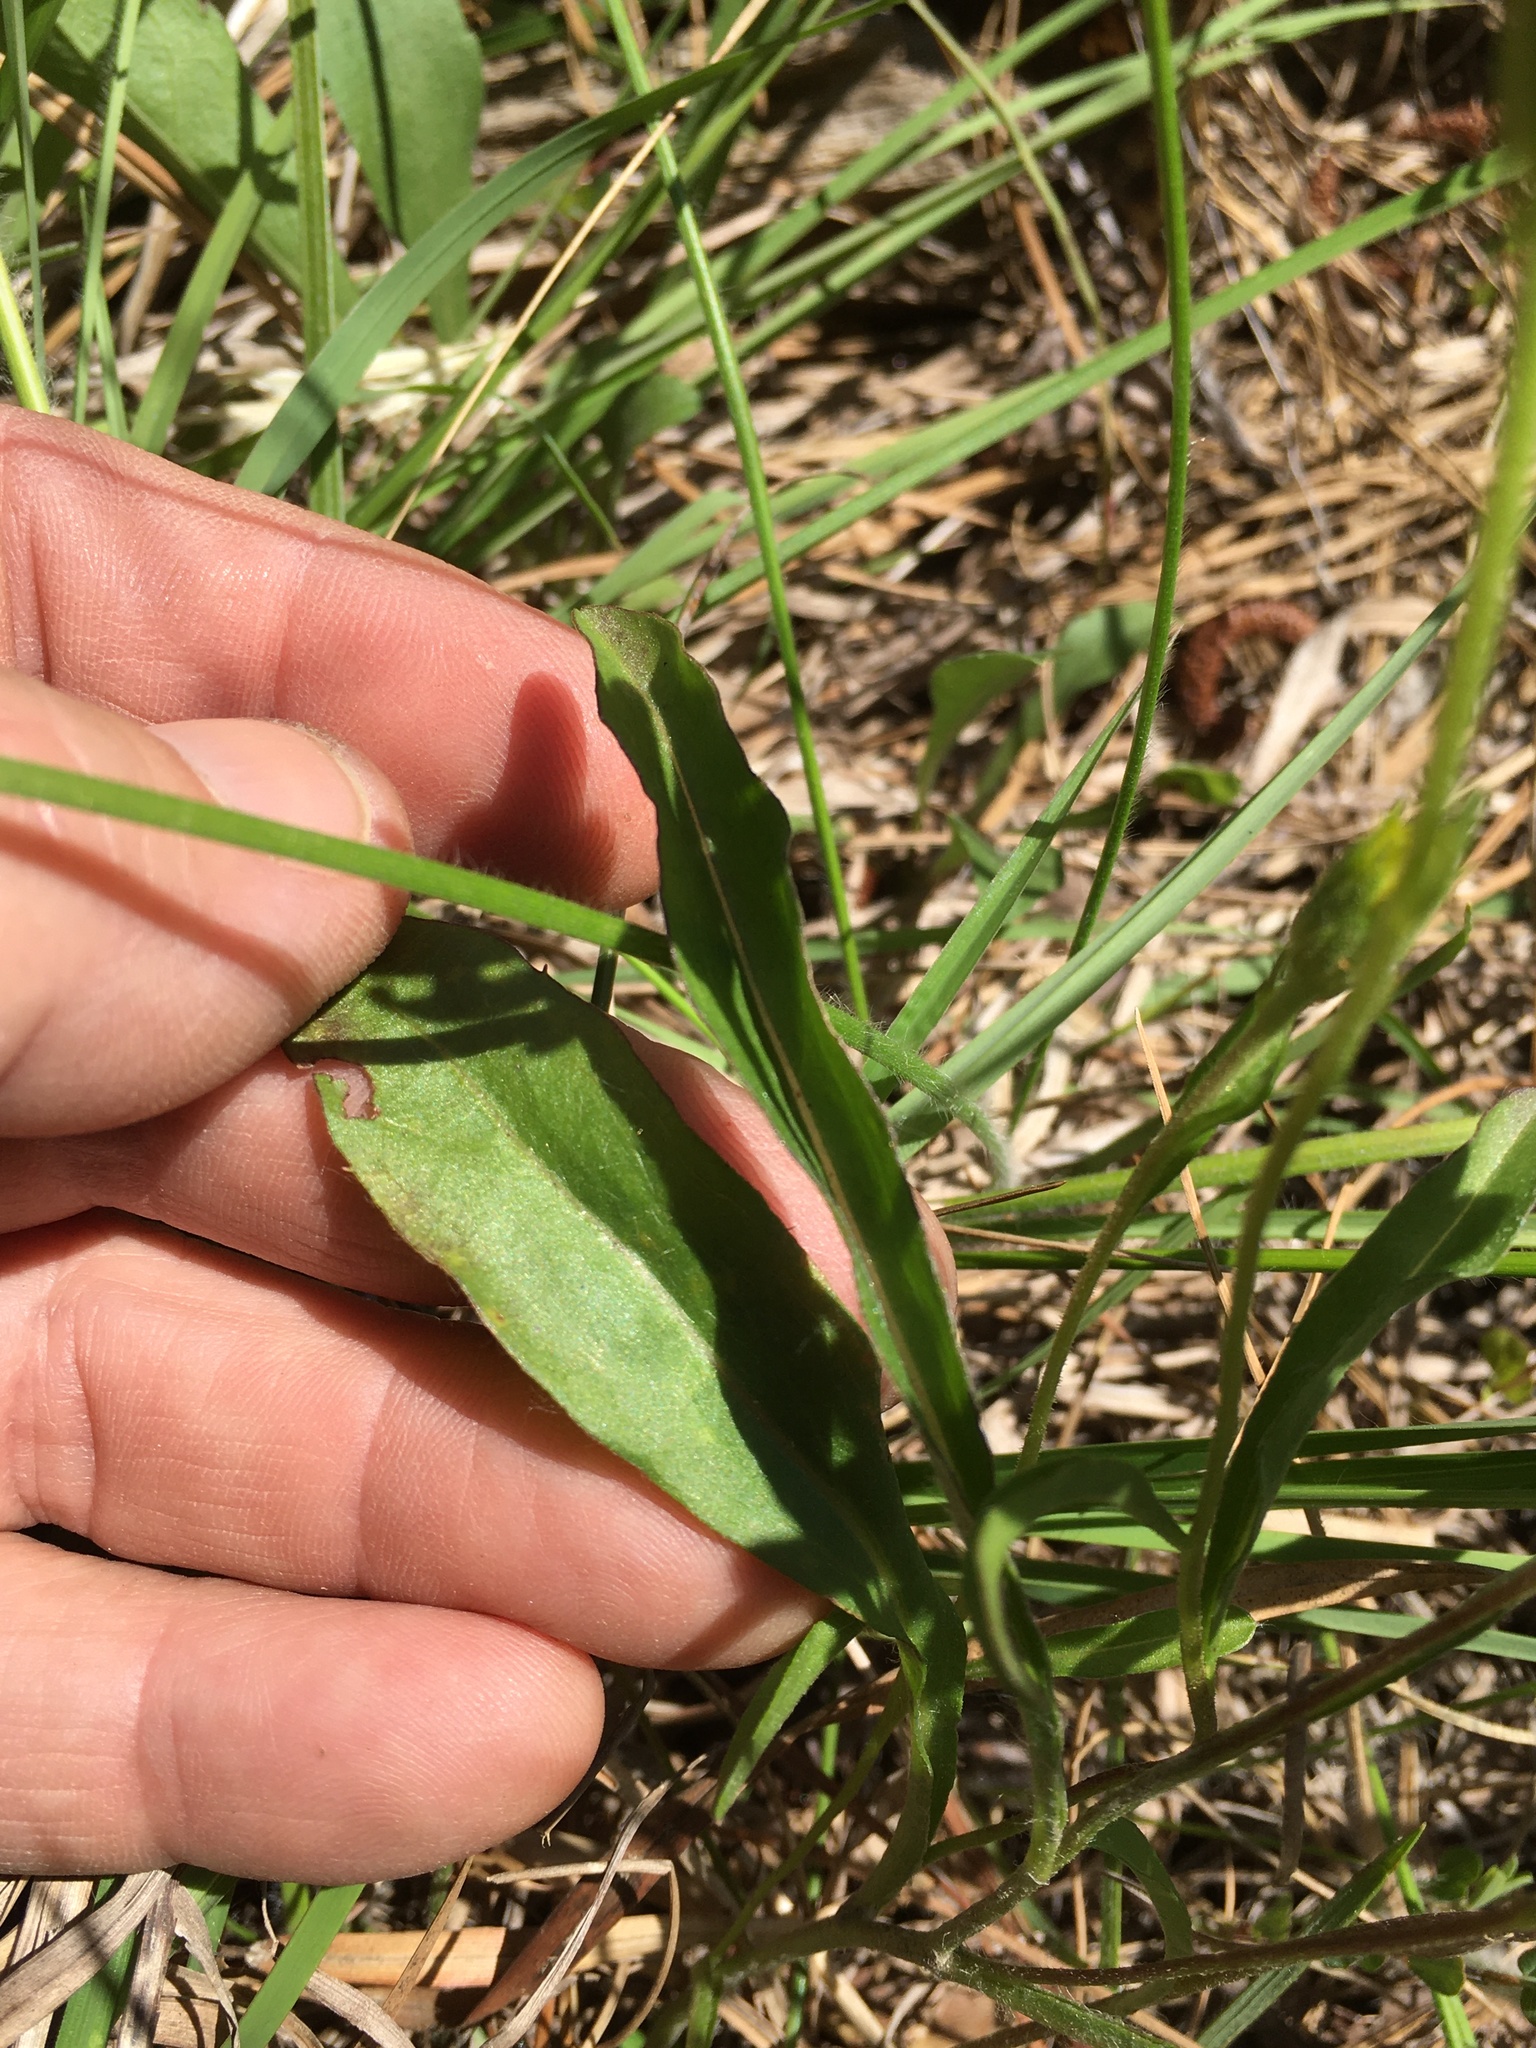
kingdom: Plantae
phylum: Tracheophyta
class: Magnoliopsida
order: Asterales
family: Asteraceae
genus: Chrysopsis
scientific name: Chrysopsis mariana
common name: Maryland golden-aster
